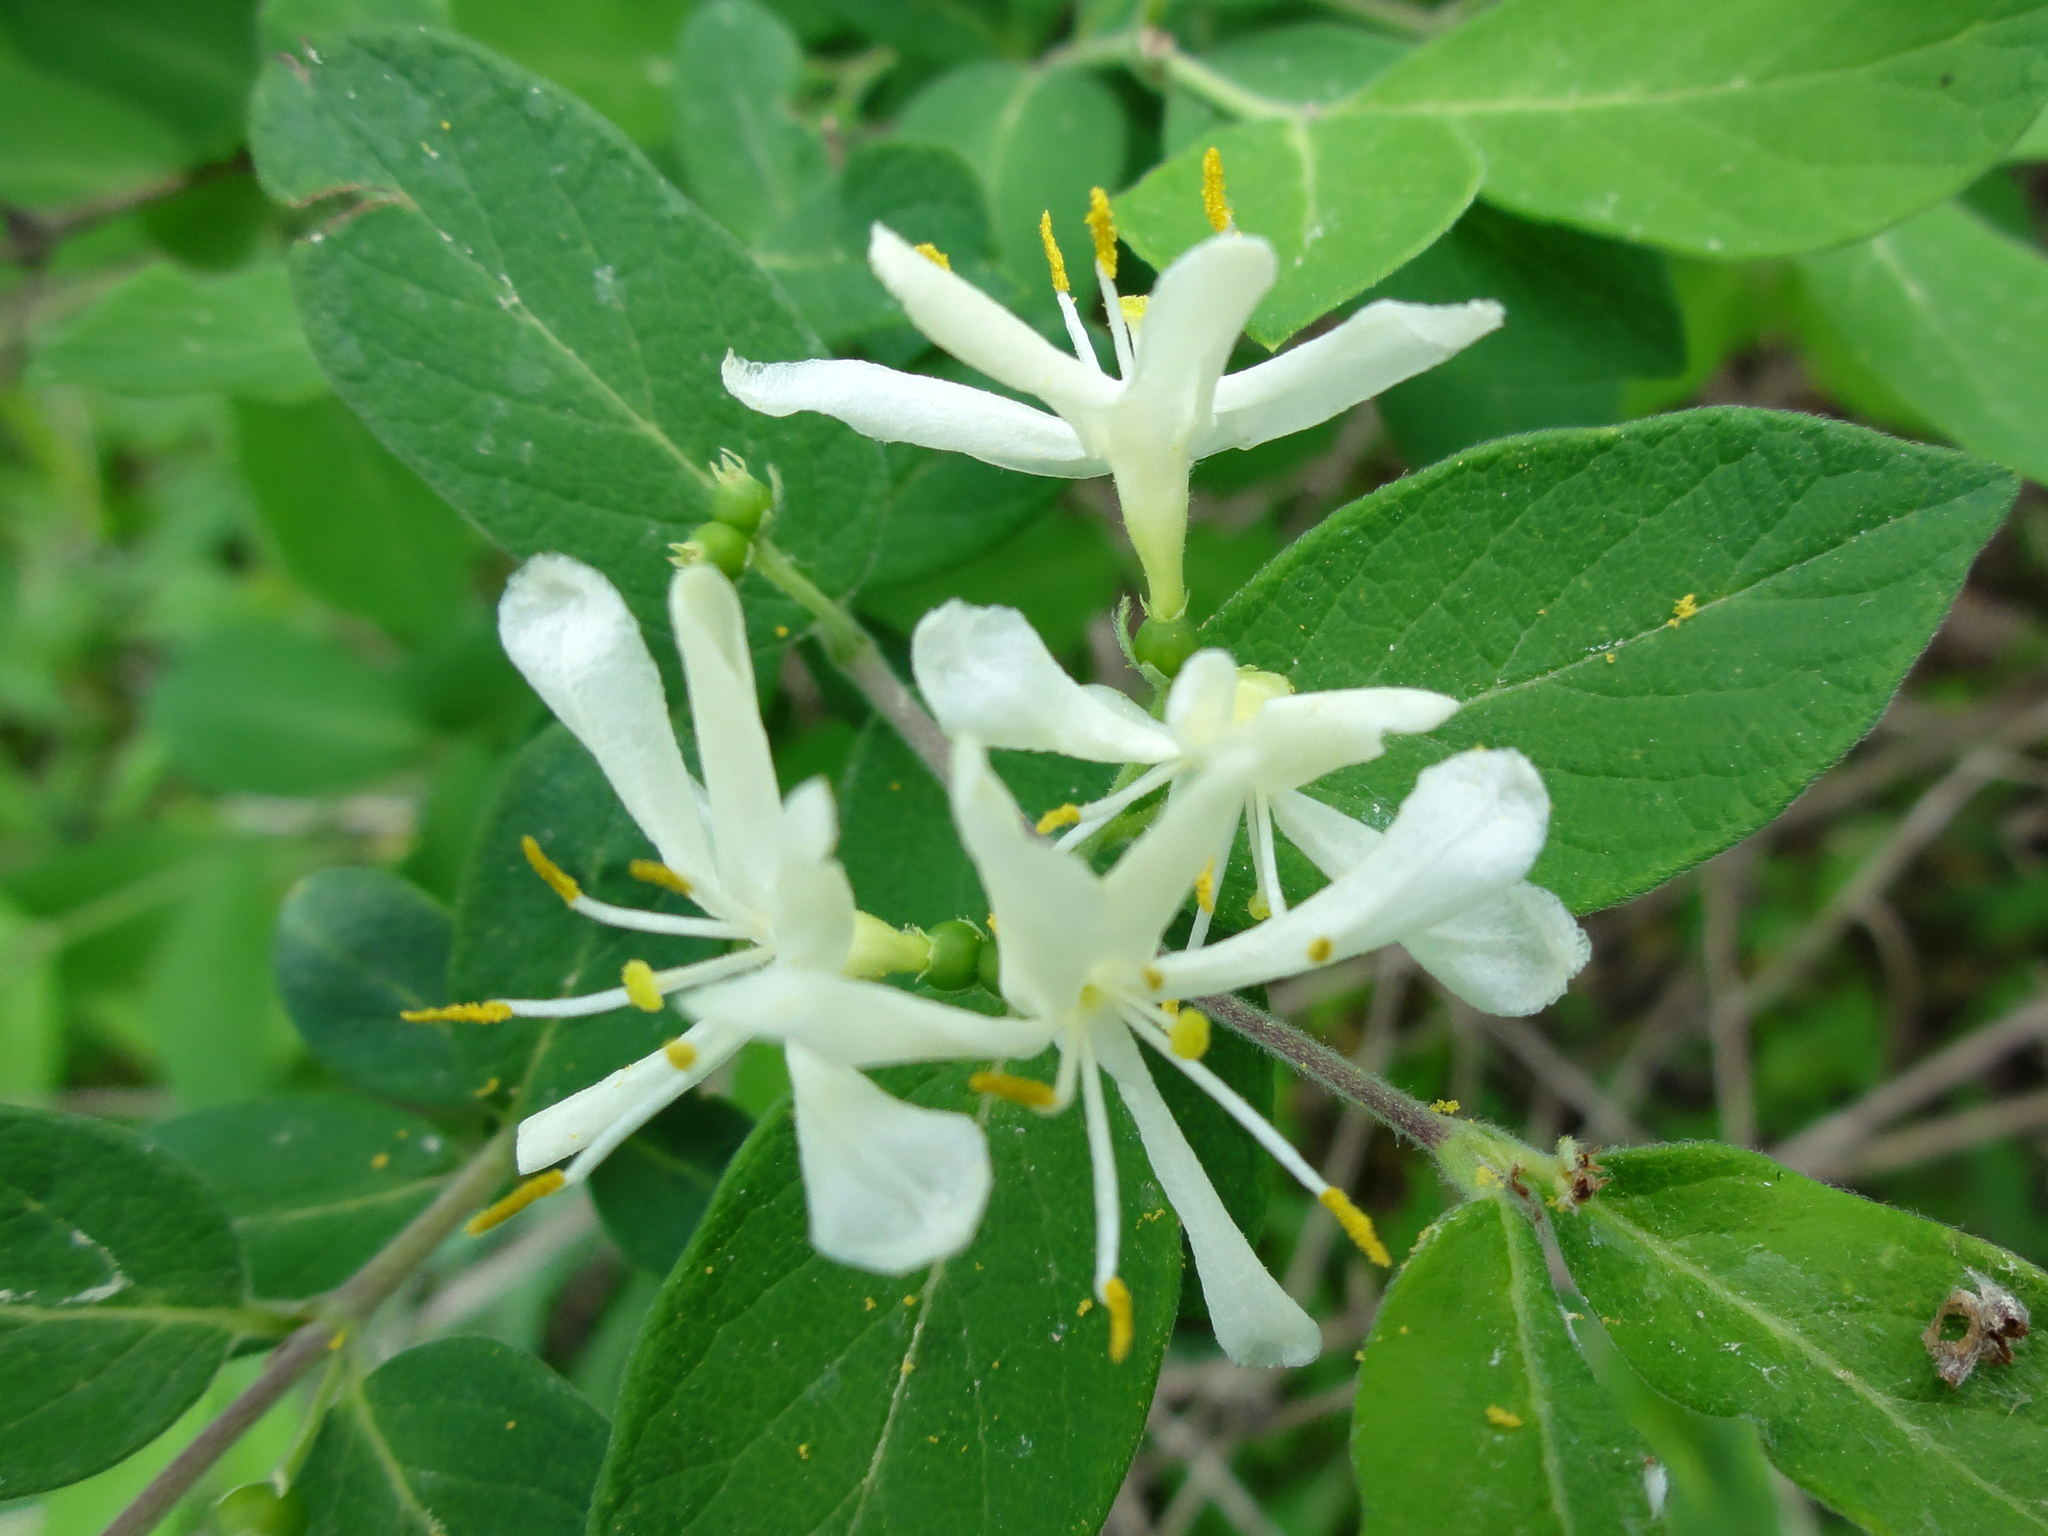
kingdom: Plantae
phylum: Tracheophyta
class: Magnoliopsida
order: Dipsacales
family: Caprifoliaceae
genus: Lonicera
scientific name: Lonicera morrowii
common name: Morrow's honeysuckle
